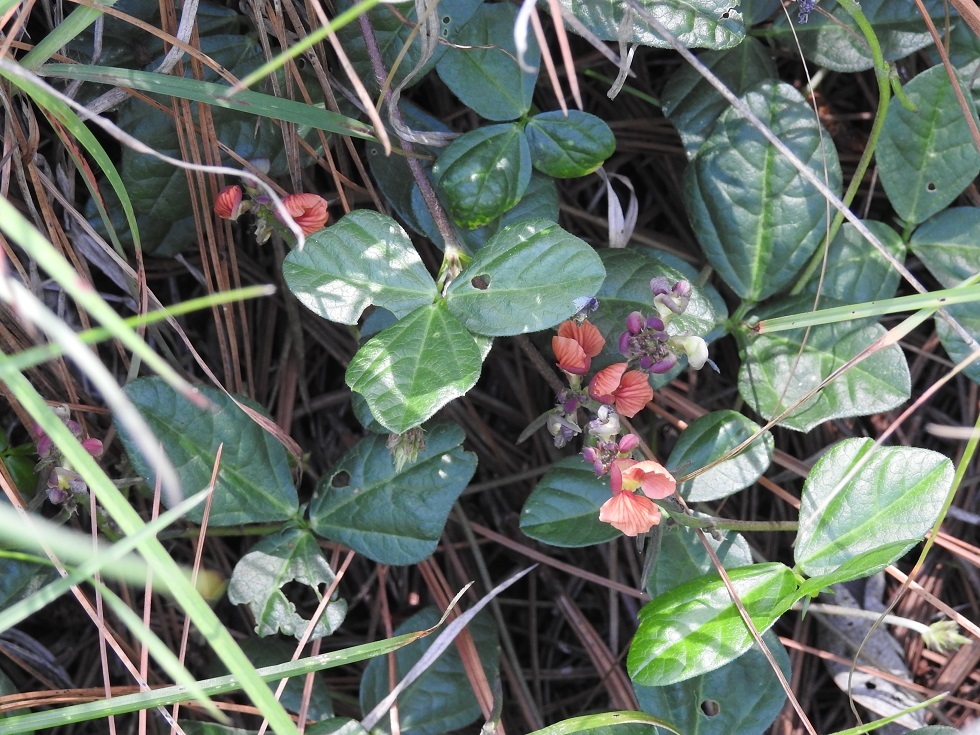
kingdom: Plantae
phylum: Tracheophyta
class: Magnoliopsida
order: Fabales
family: Fabaceae
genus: Macroptilium
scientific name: Macroptilium gibbosifolium
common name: Variableleaf bushbean
